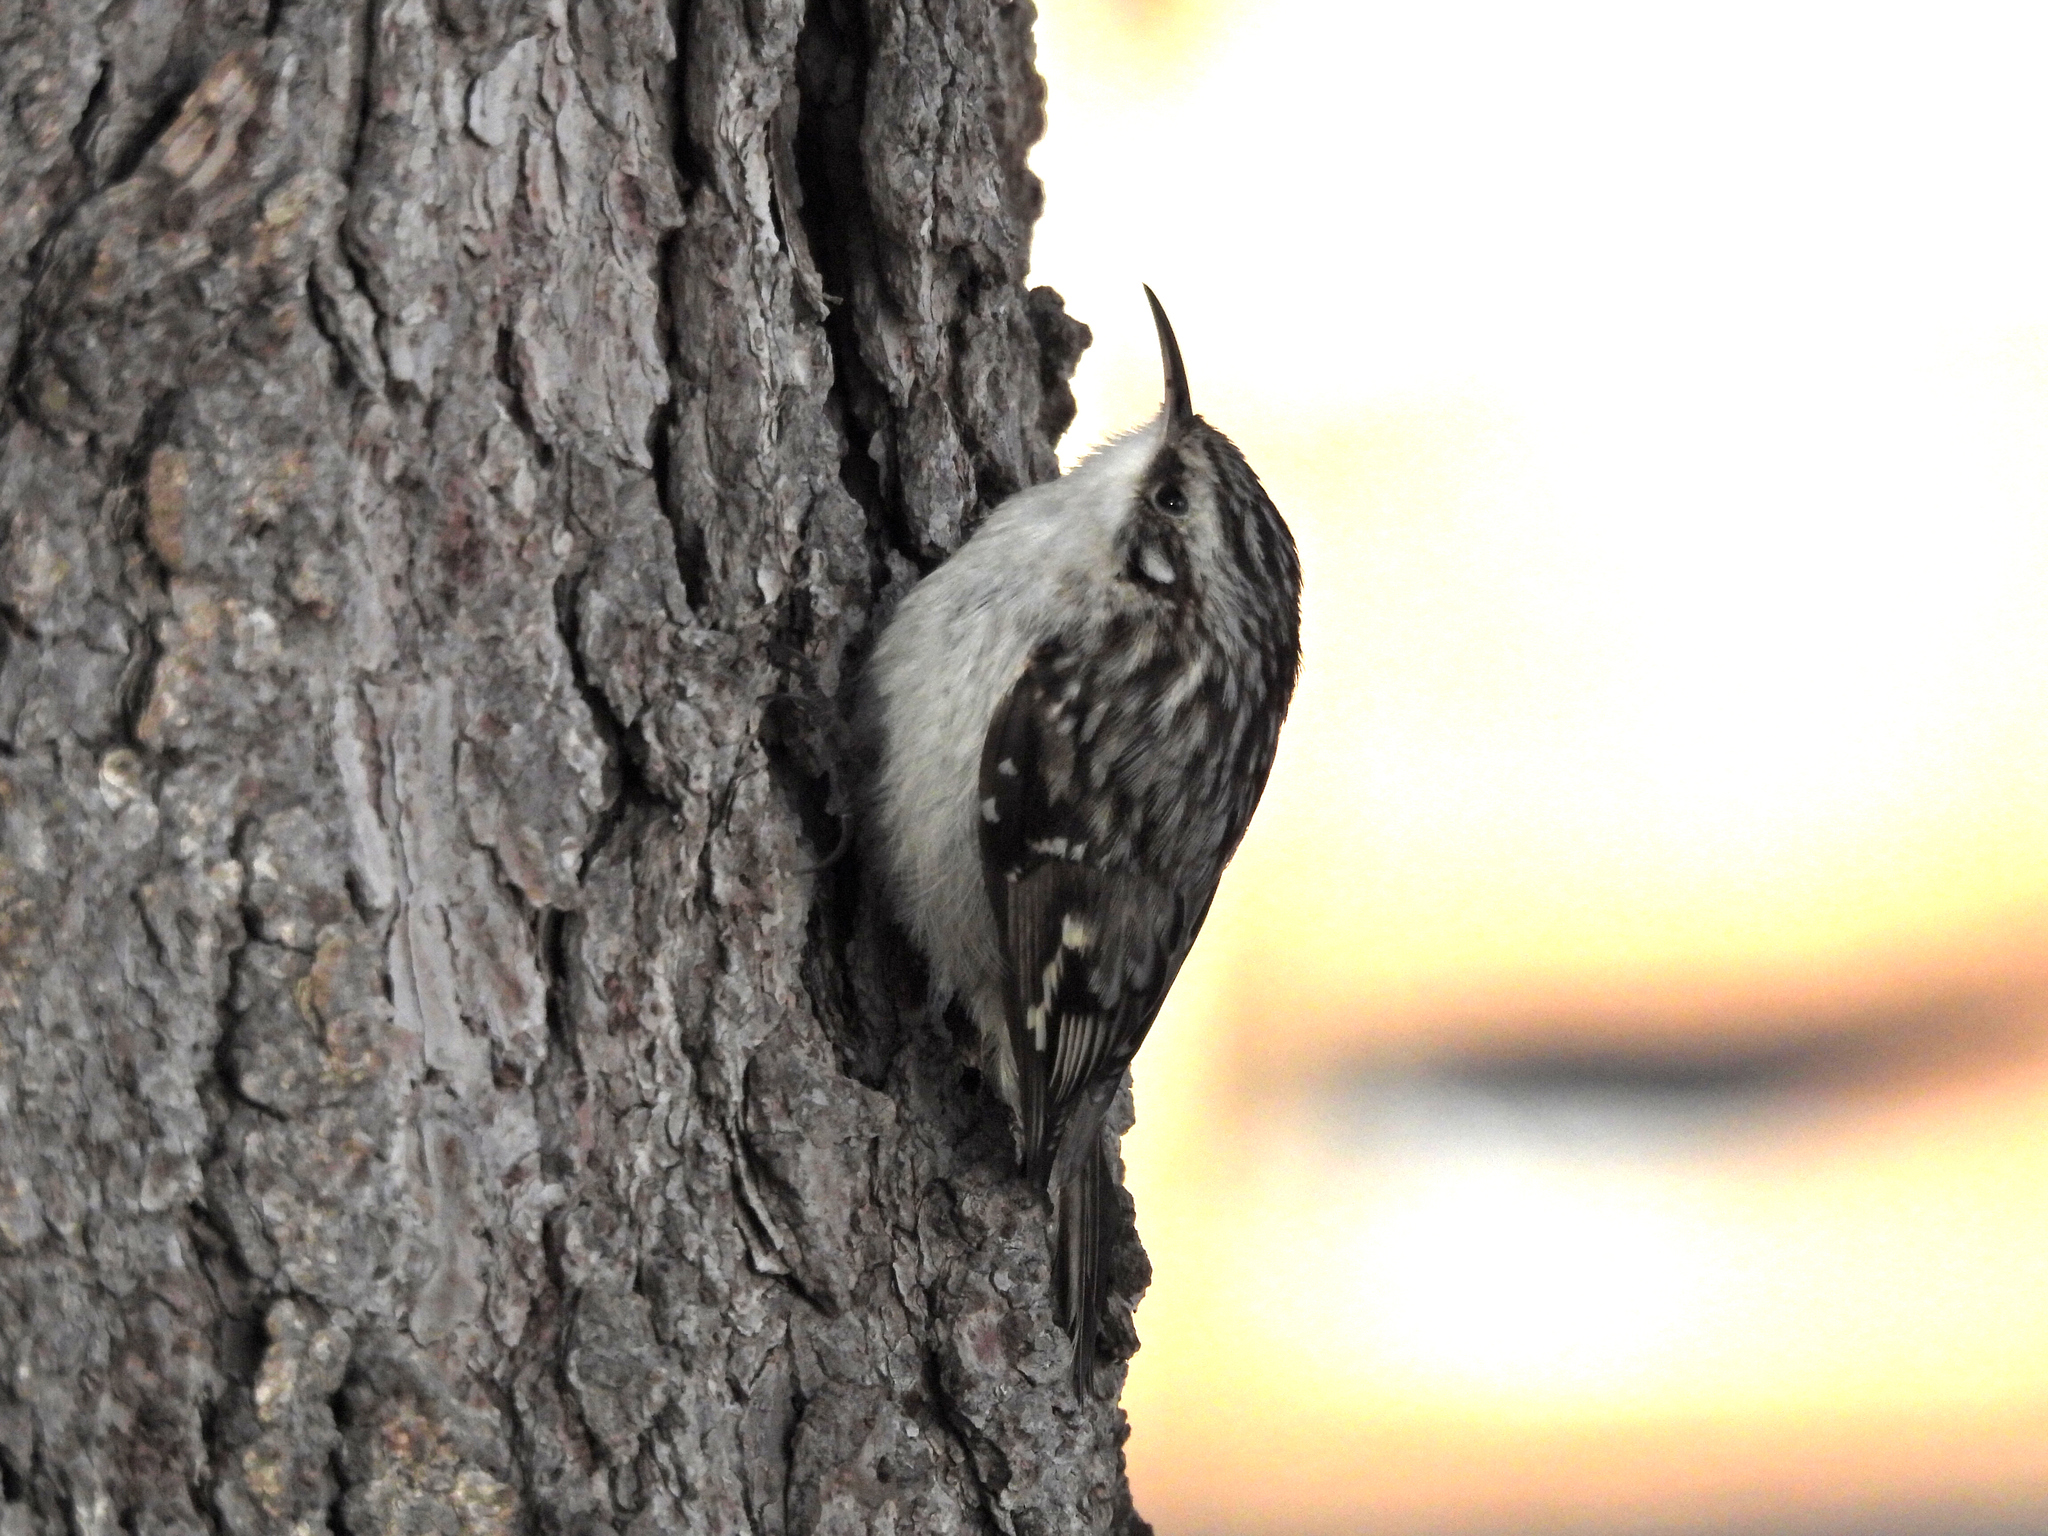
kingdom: Animalia
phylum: Chordata
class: Aves
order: Passeriformes
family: Certhiidae
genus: Certhia
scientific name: Certhia americana
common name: Brown creeper
